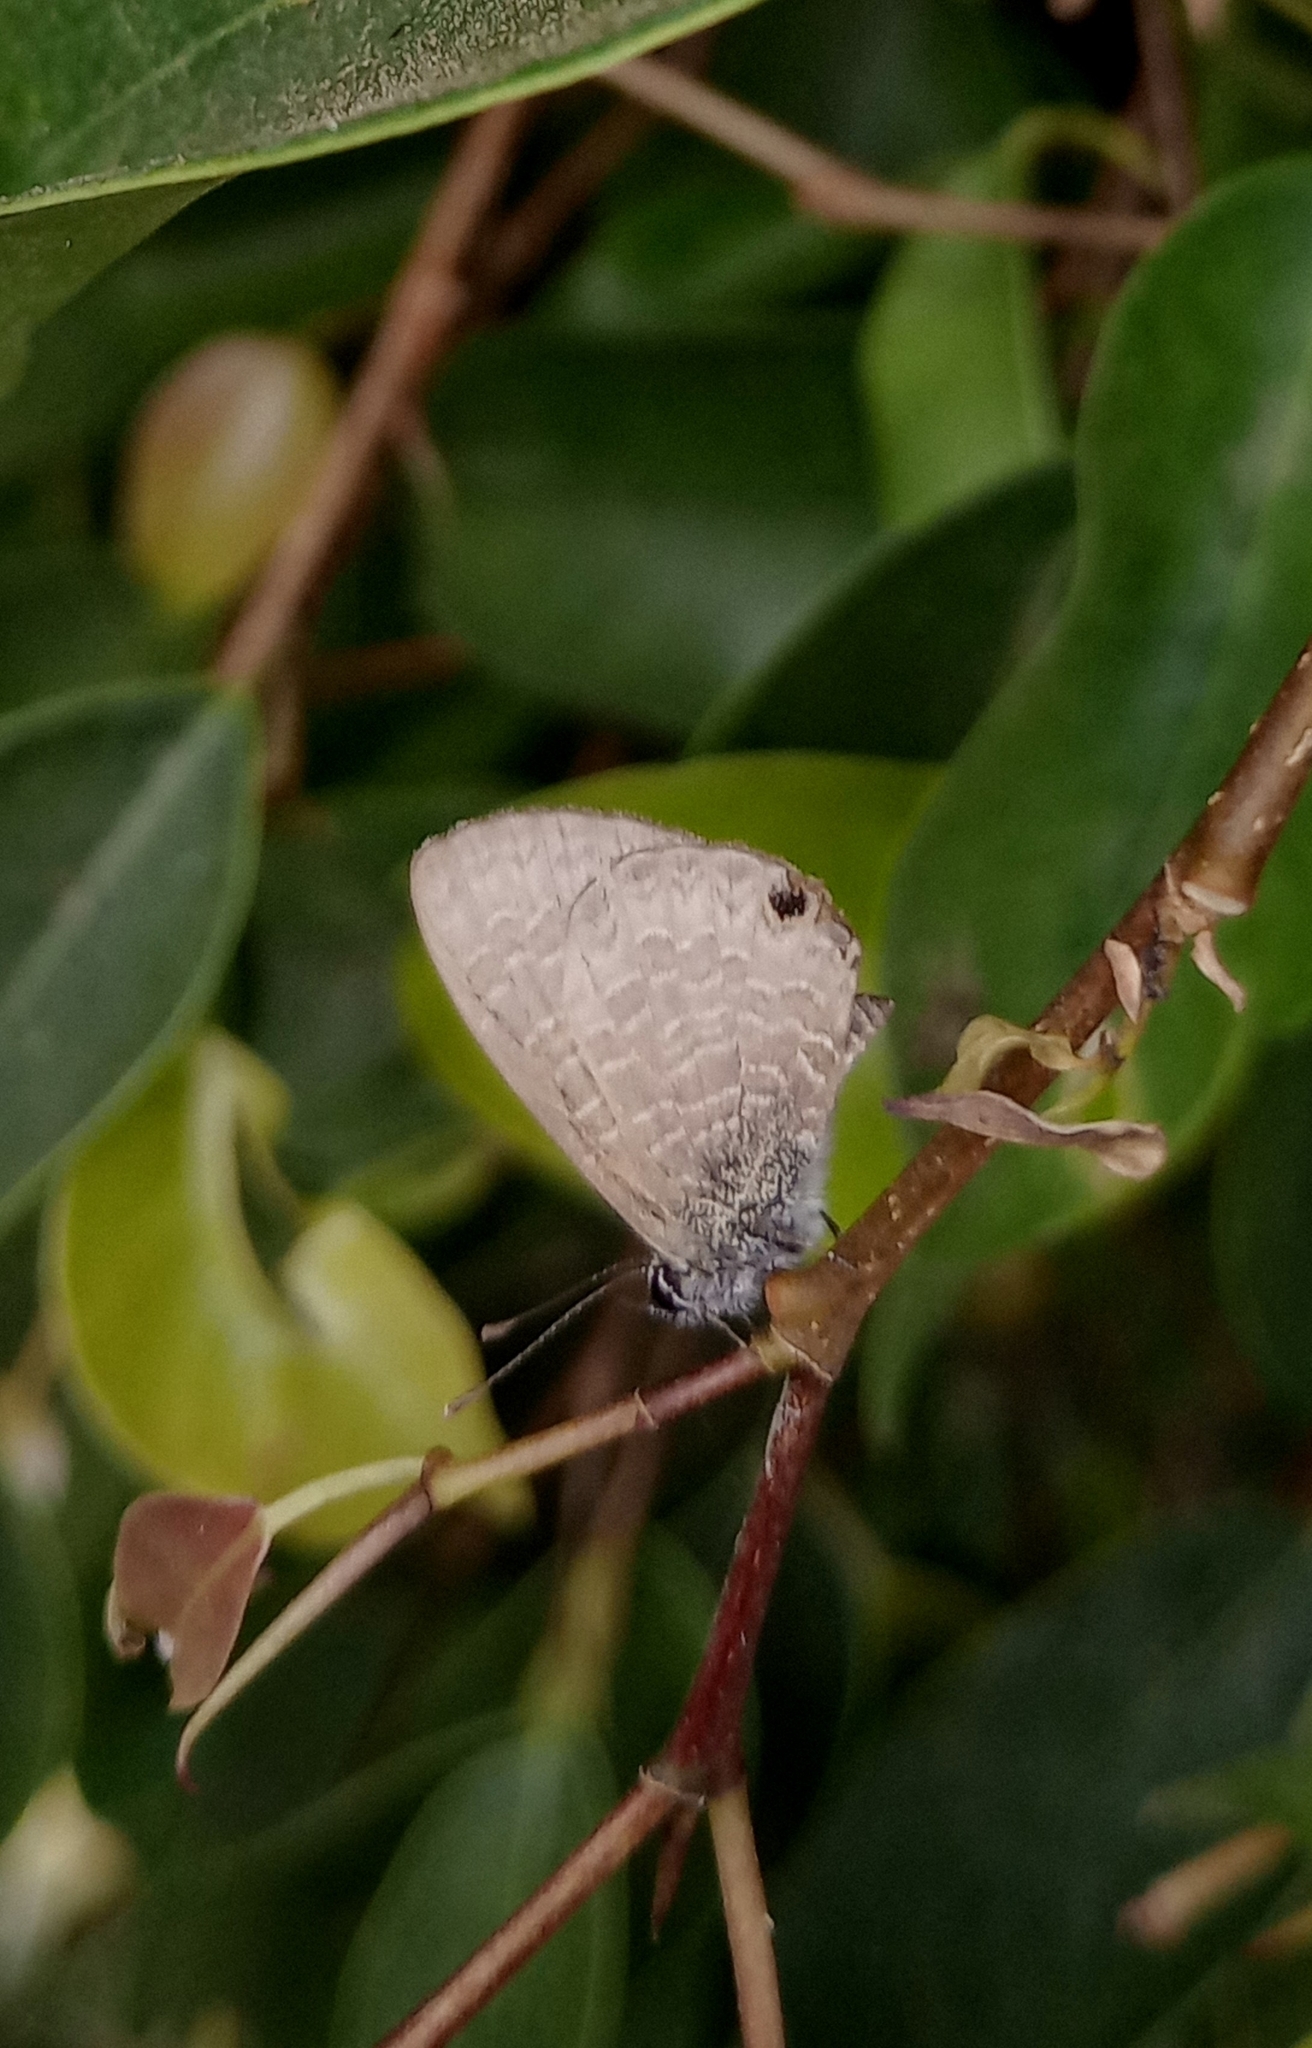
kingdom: Animalia
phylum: Arthropoda
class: Insecta
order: Lepidoptera
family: Lycaenidae
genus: Prosotas
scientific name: Prosotas dubiosa
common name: Tailless lineblue
